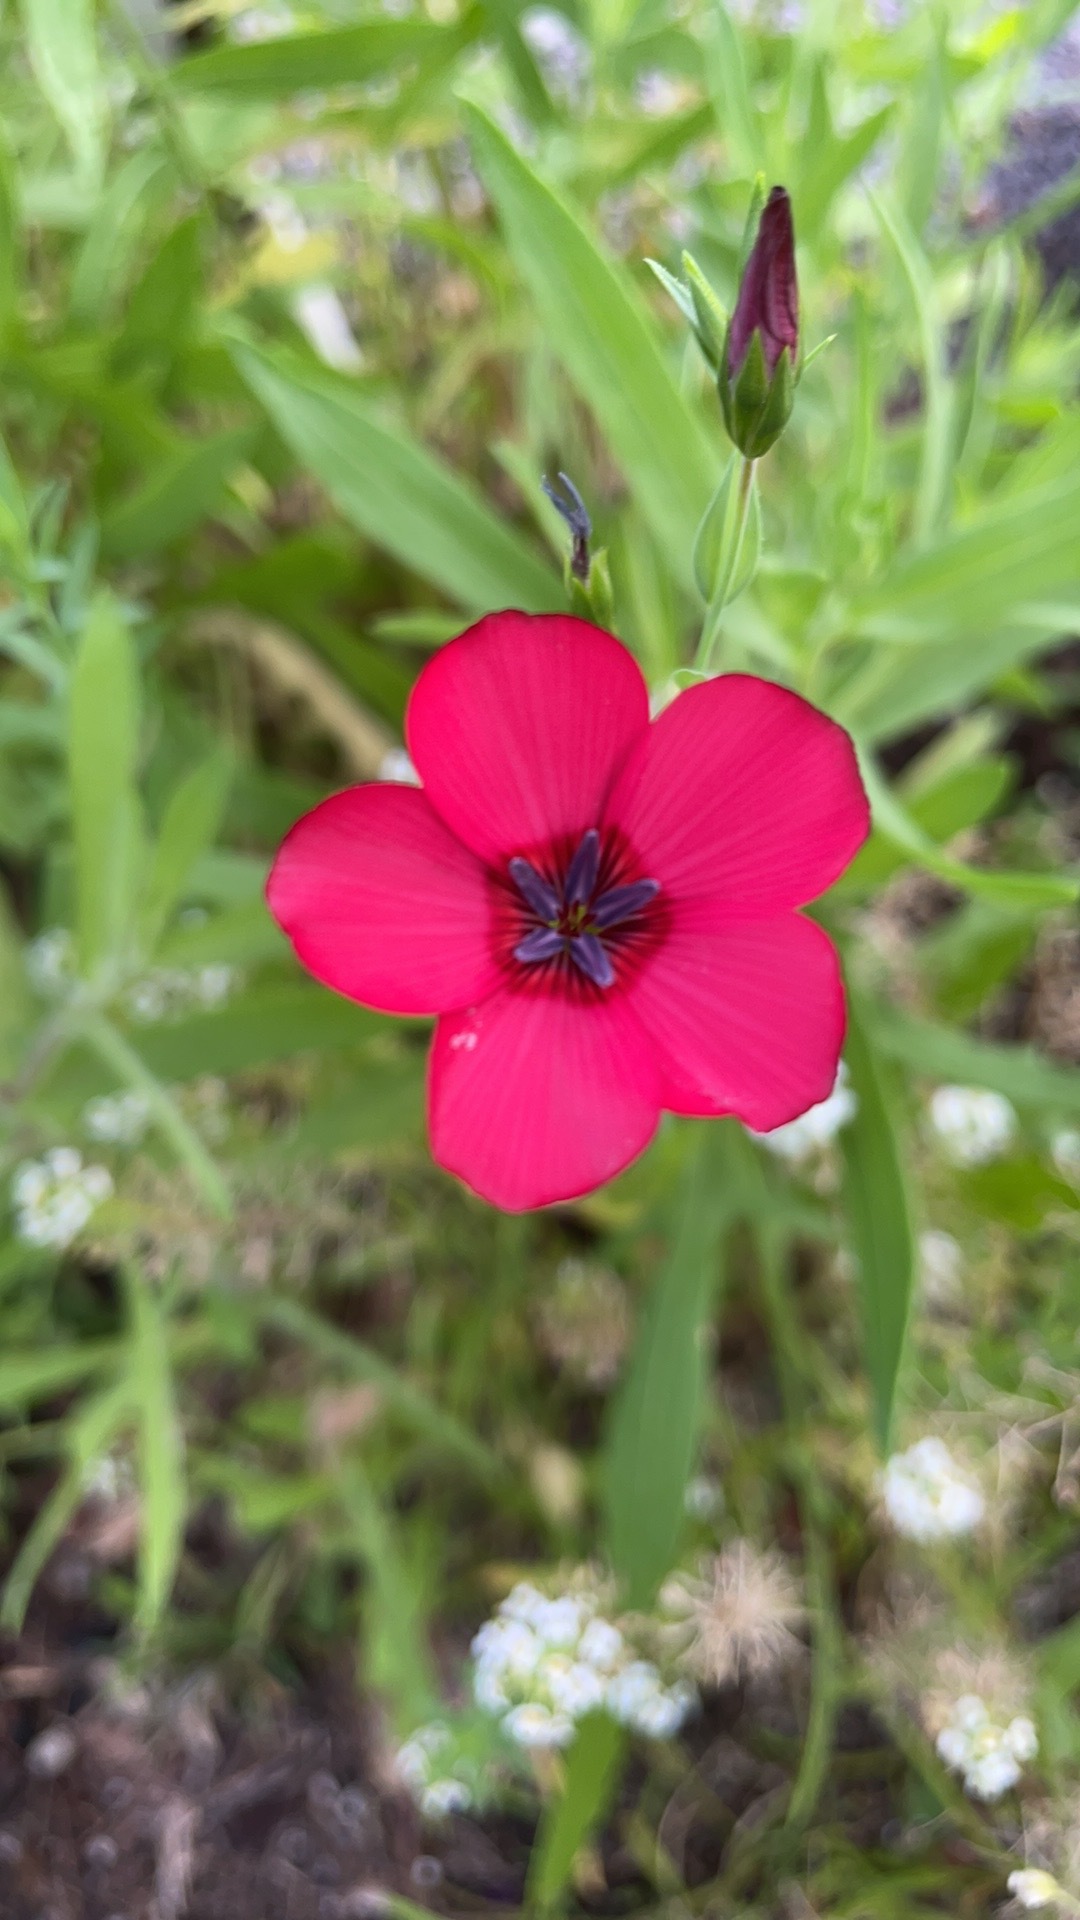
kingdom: Plantae
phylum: Tracheophyta
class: Magnoliopsida
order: Malpighiales
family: Linaceae
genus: Linum
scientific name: Linum grandiflorum
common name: Crimson flax
